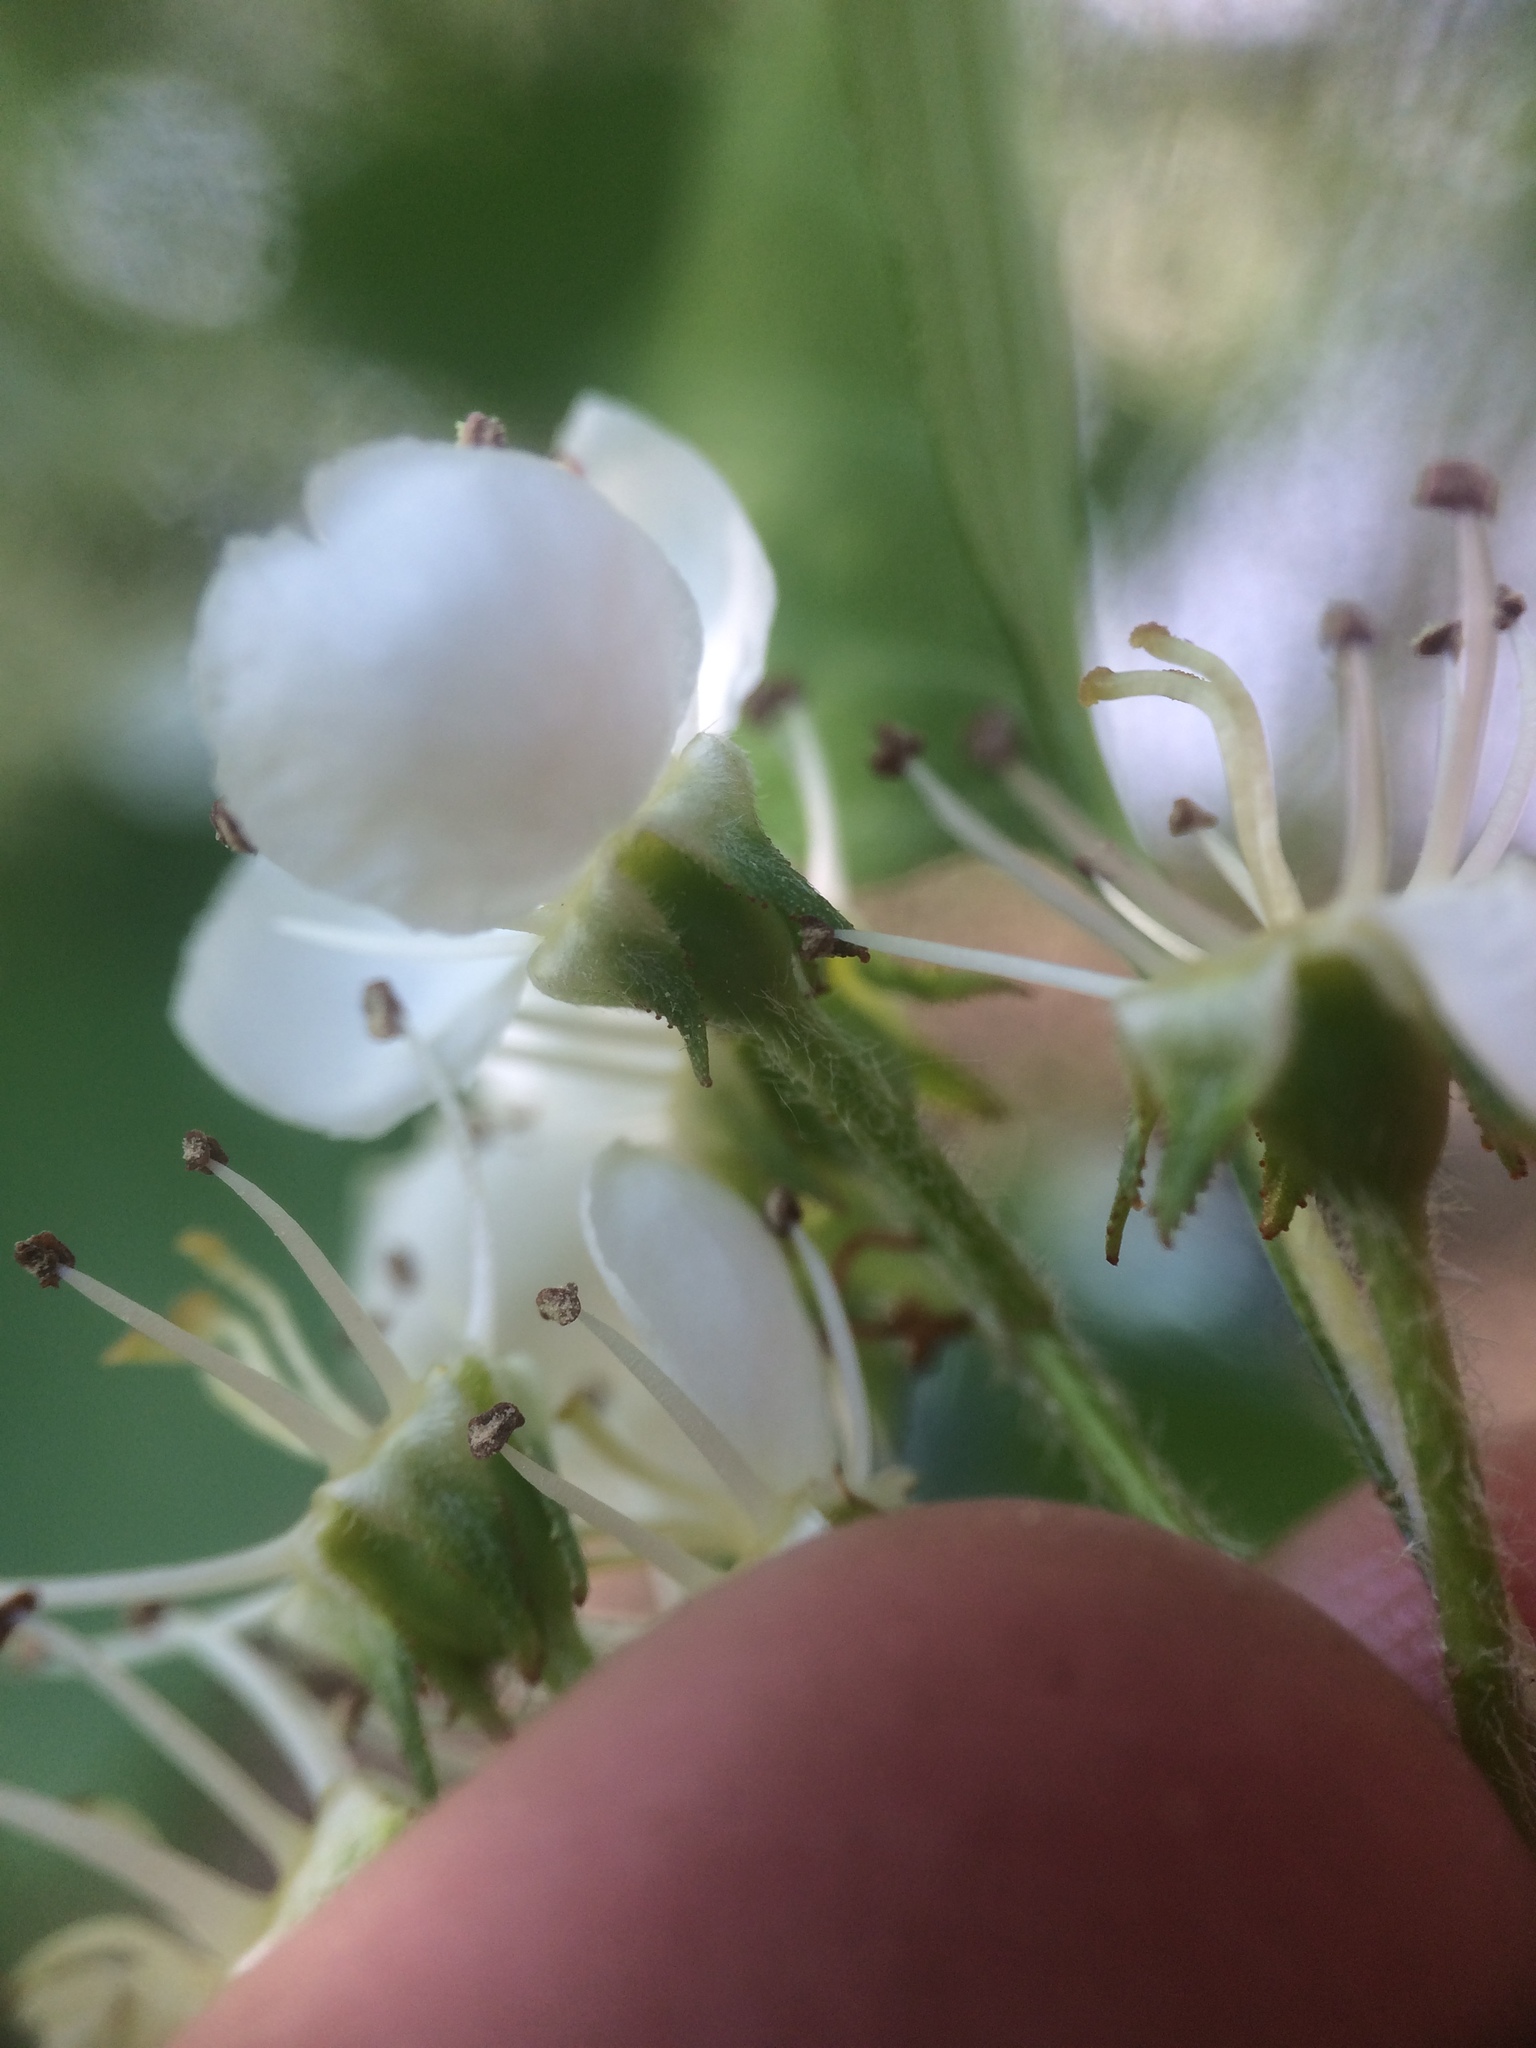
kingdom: Plantae
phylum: Tracheophyta
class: Magnoliopsida
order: Rosales
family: Rosaceae
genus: Crataegus
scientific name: Crataegus flabellata
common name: Bosc's hawthorn
